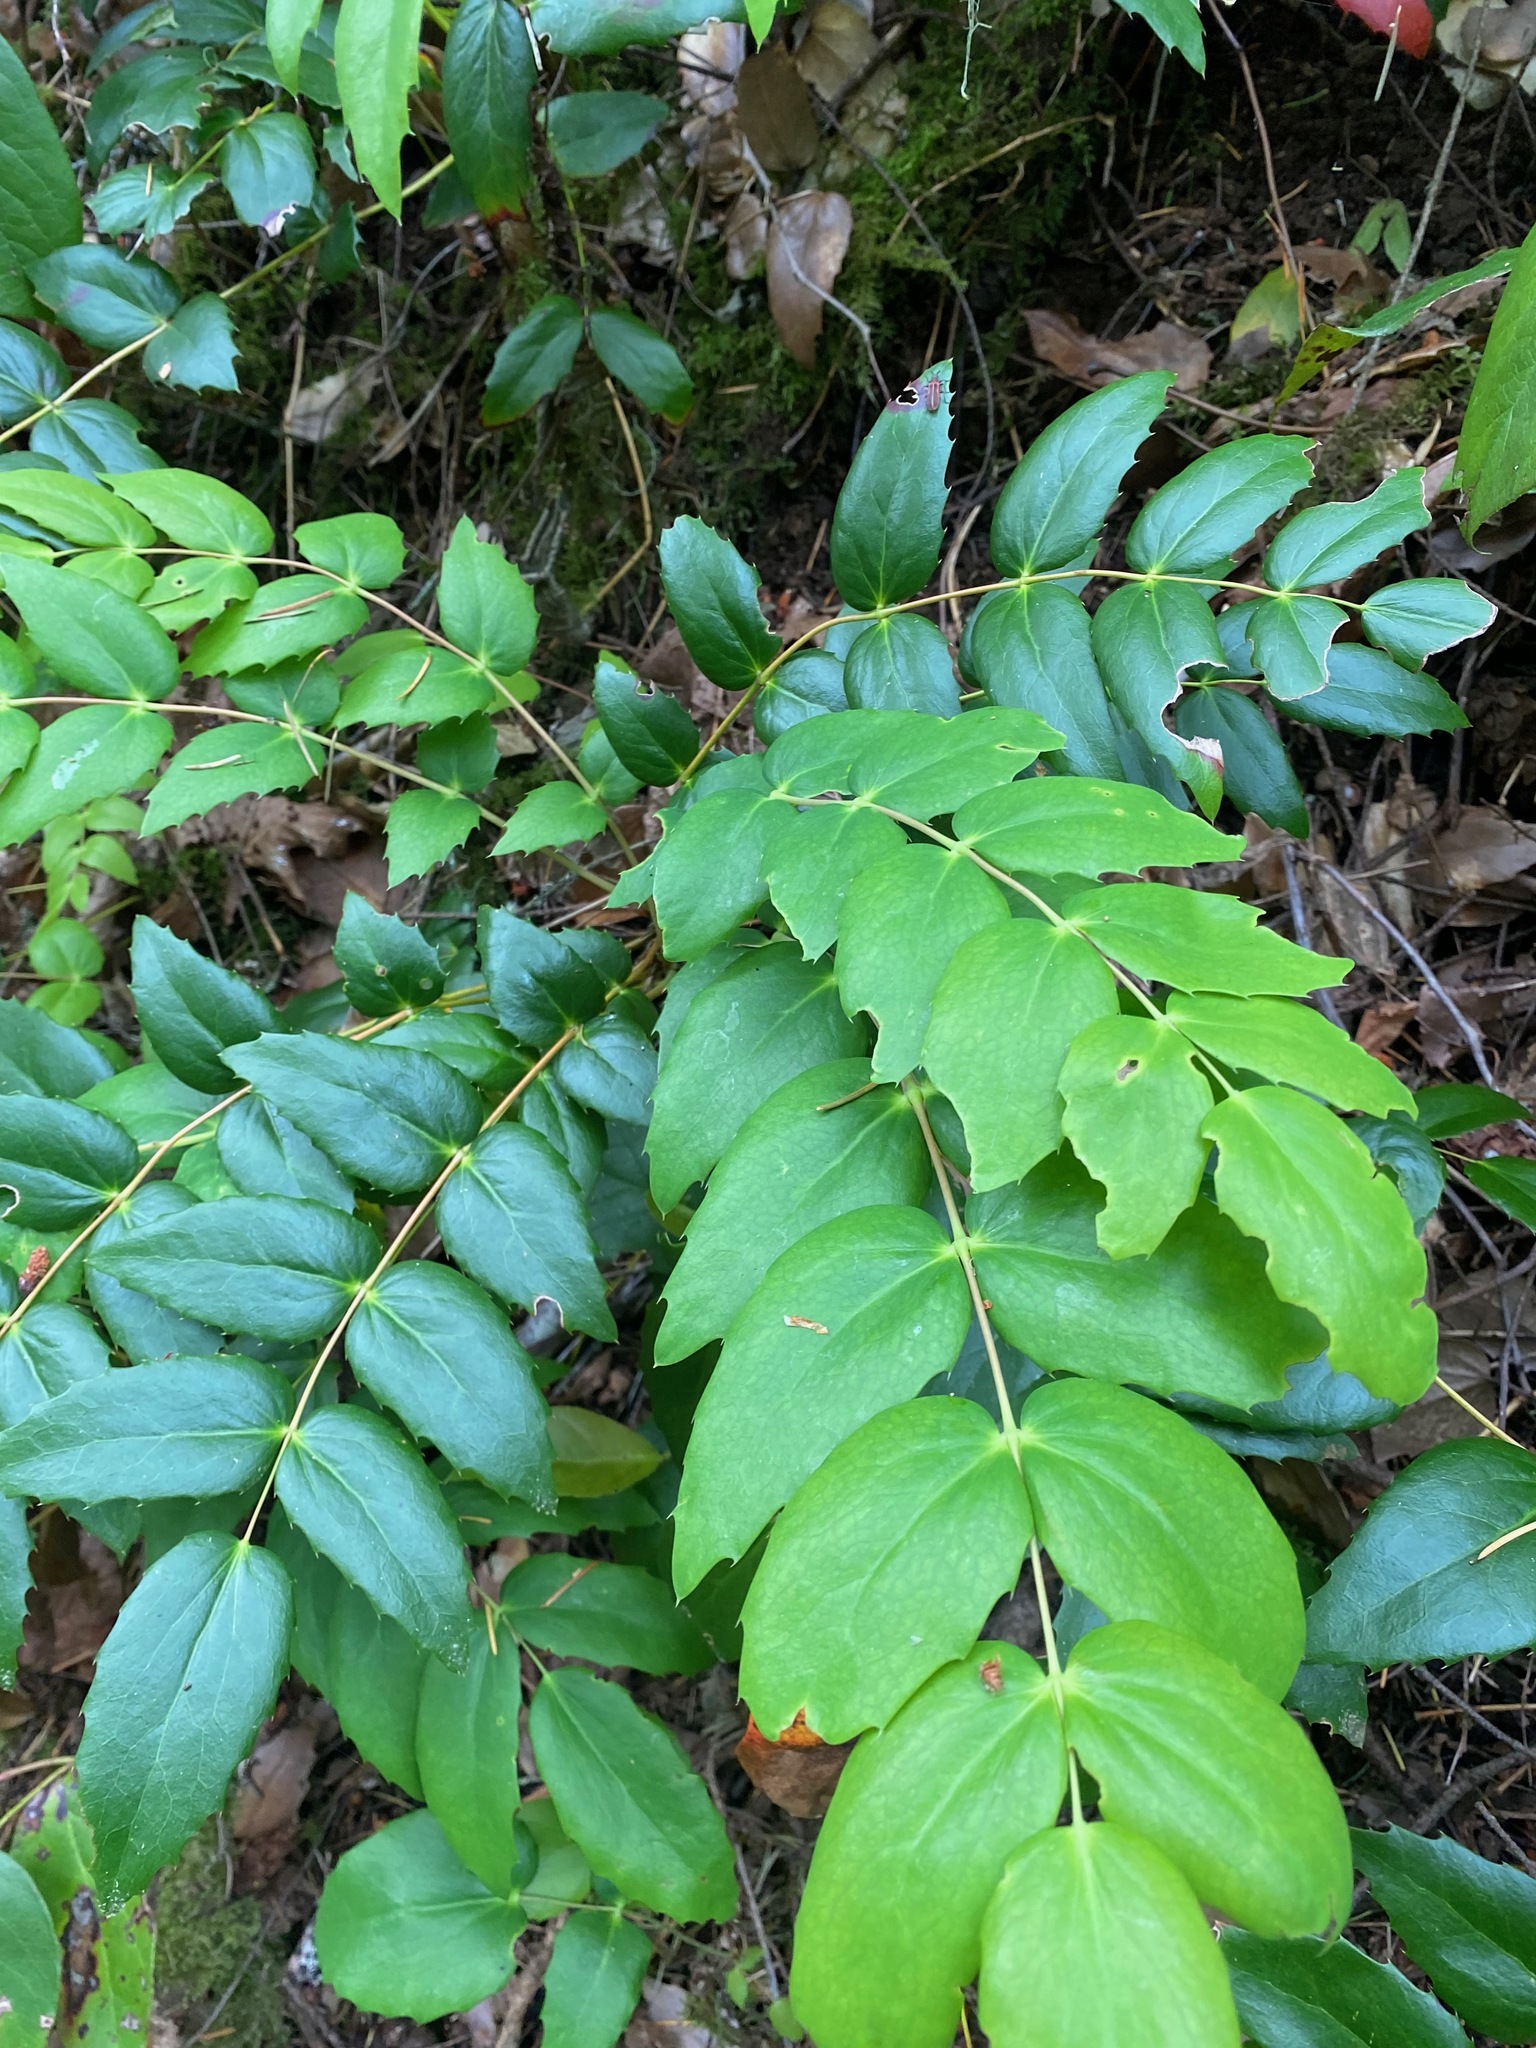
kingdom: Plantae
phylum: Tracheophyta
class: Magnoliopsida
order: Ranunculales
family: Berberidaceae
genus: Mahonia
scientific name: Mahonia nervosa
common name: Cascade oregon-grape
